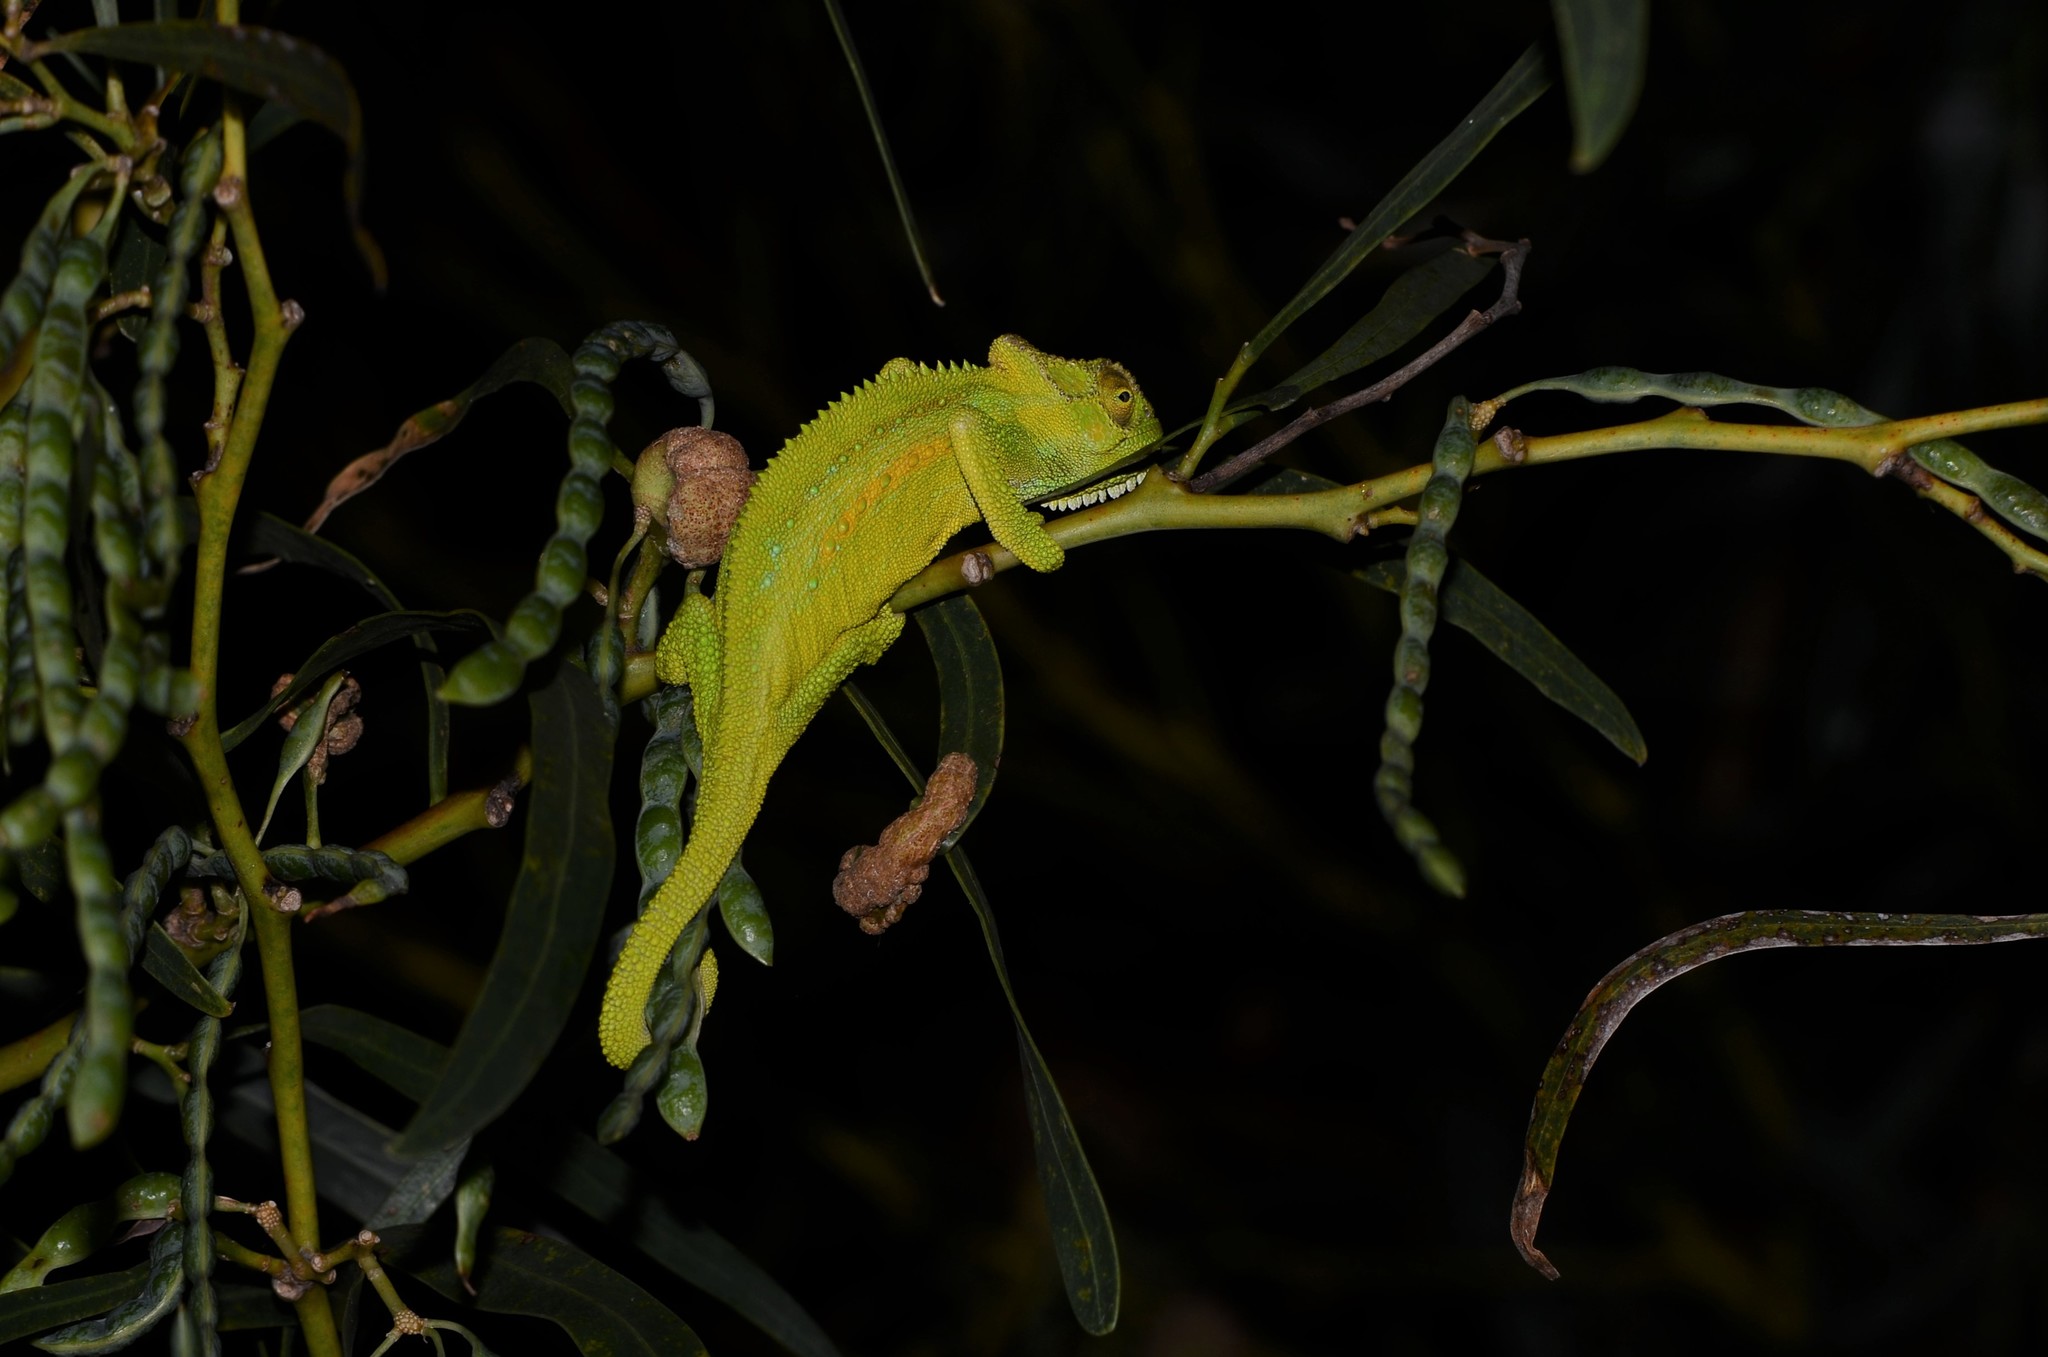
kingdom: Animalia
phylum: Chordata
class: Squamata
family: Chamaeleonidae
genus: Bradypodion
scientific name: Bradypodion pumilum
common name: Cape dwarf chameleon
